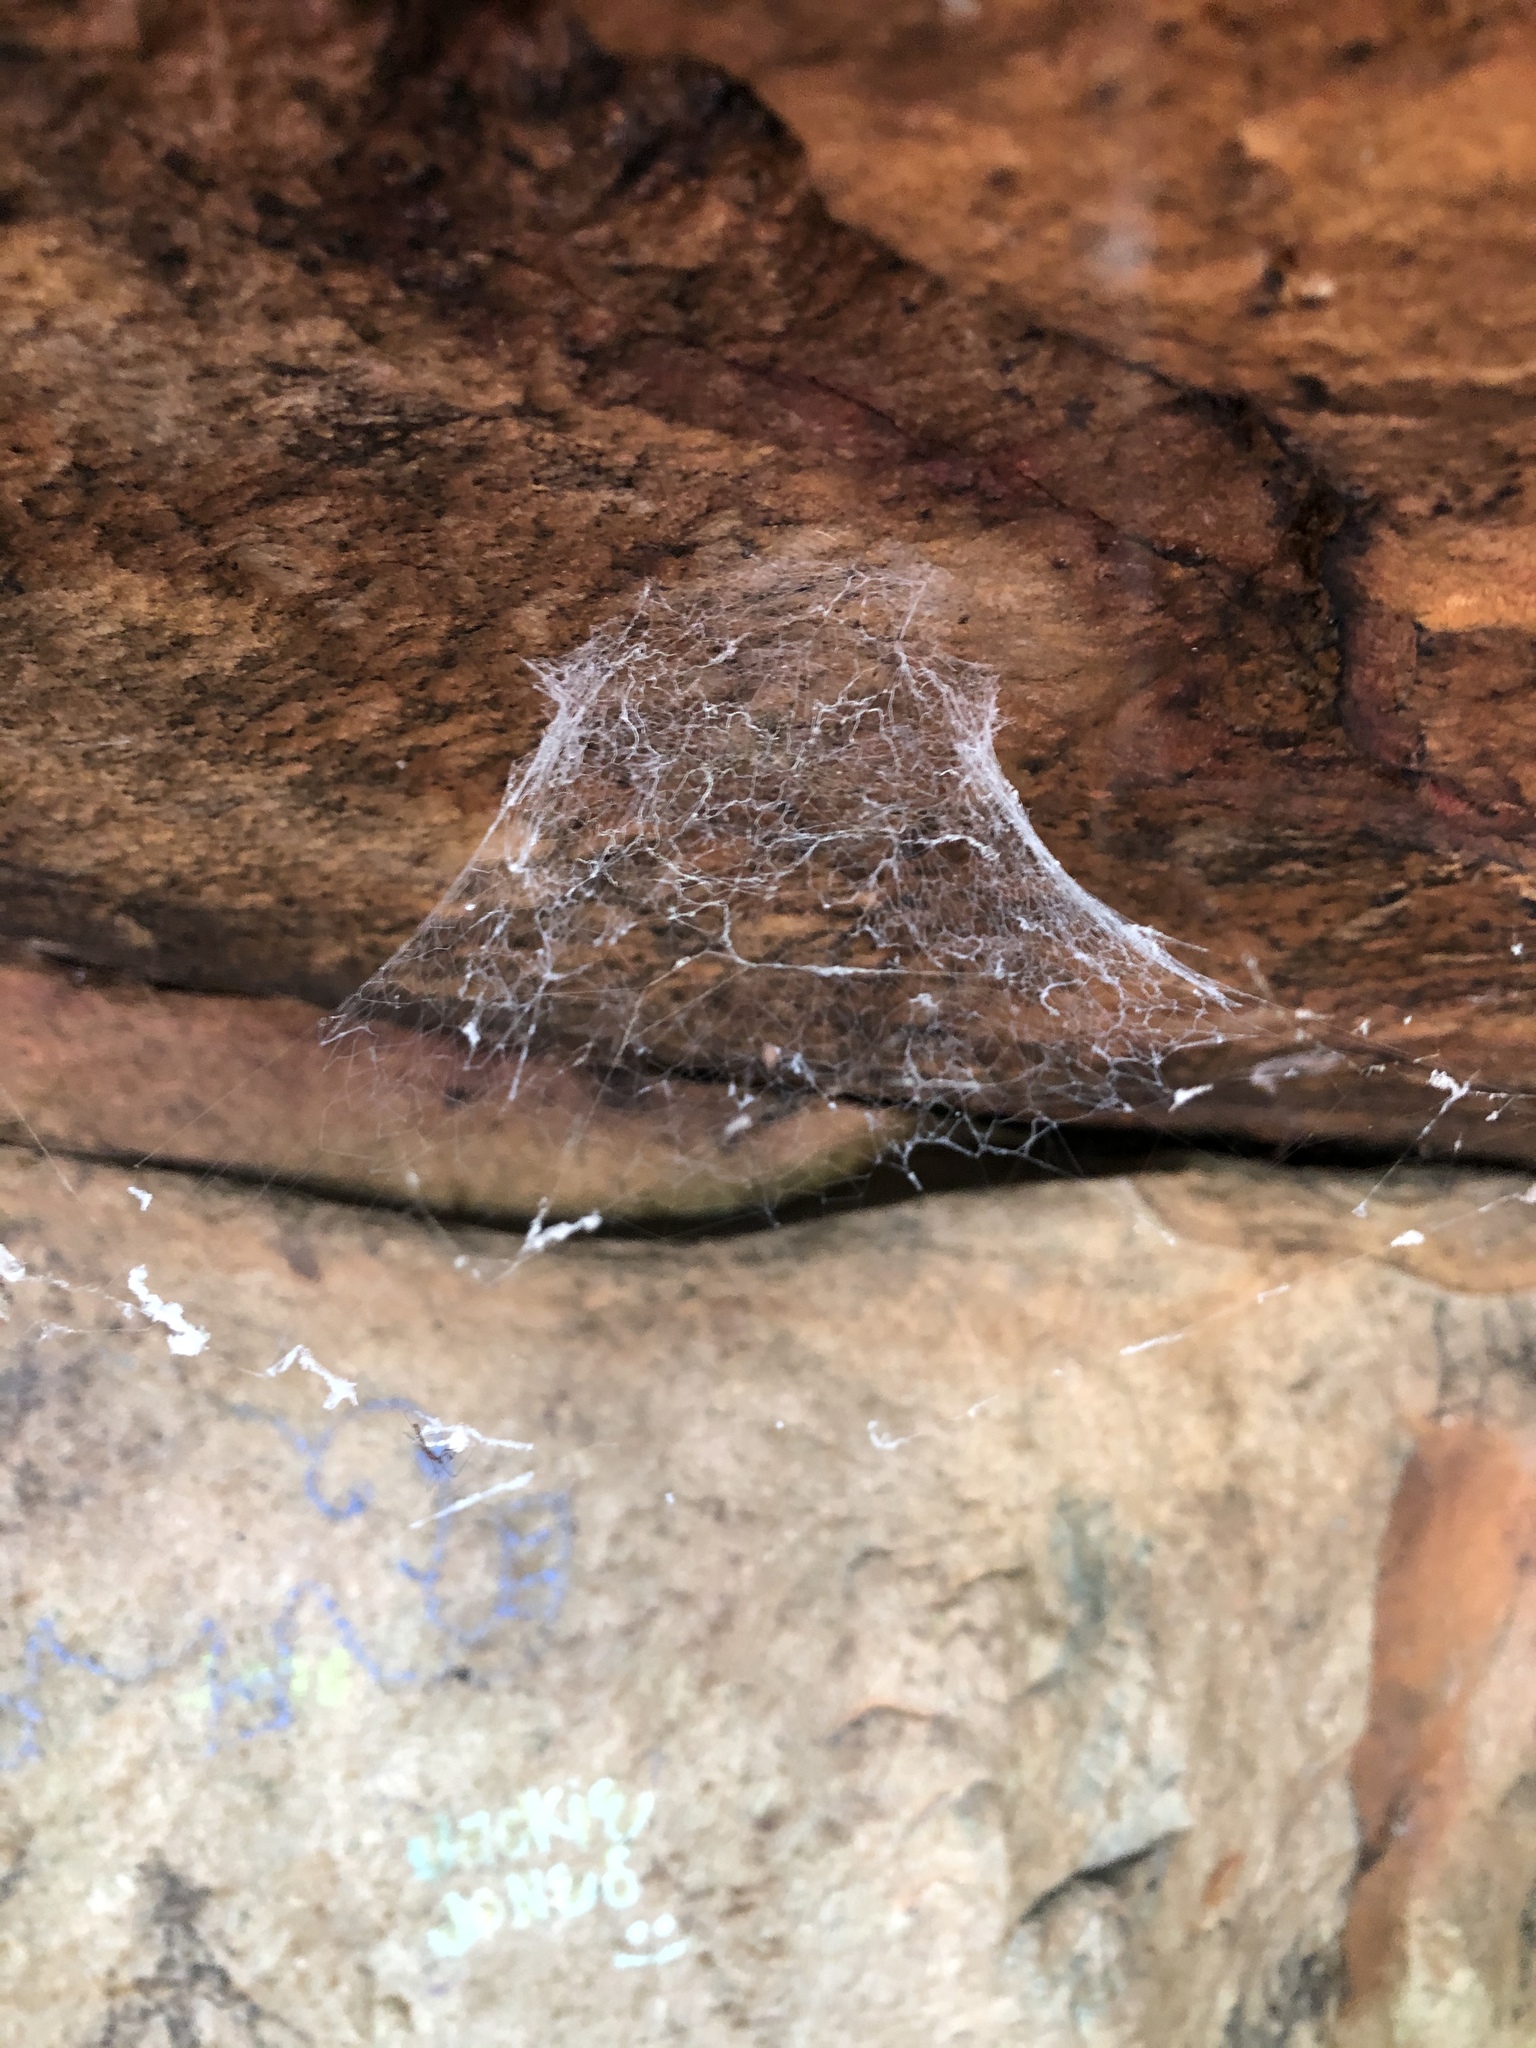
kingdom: Animalia
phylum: Arthropoda
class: Arachnida
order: Araneae
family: Hypochilidae
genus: Hypochilus
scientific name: Hypochilus thorelli
